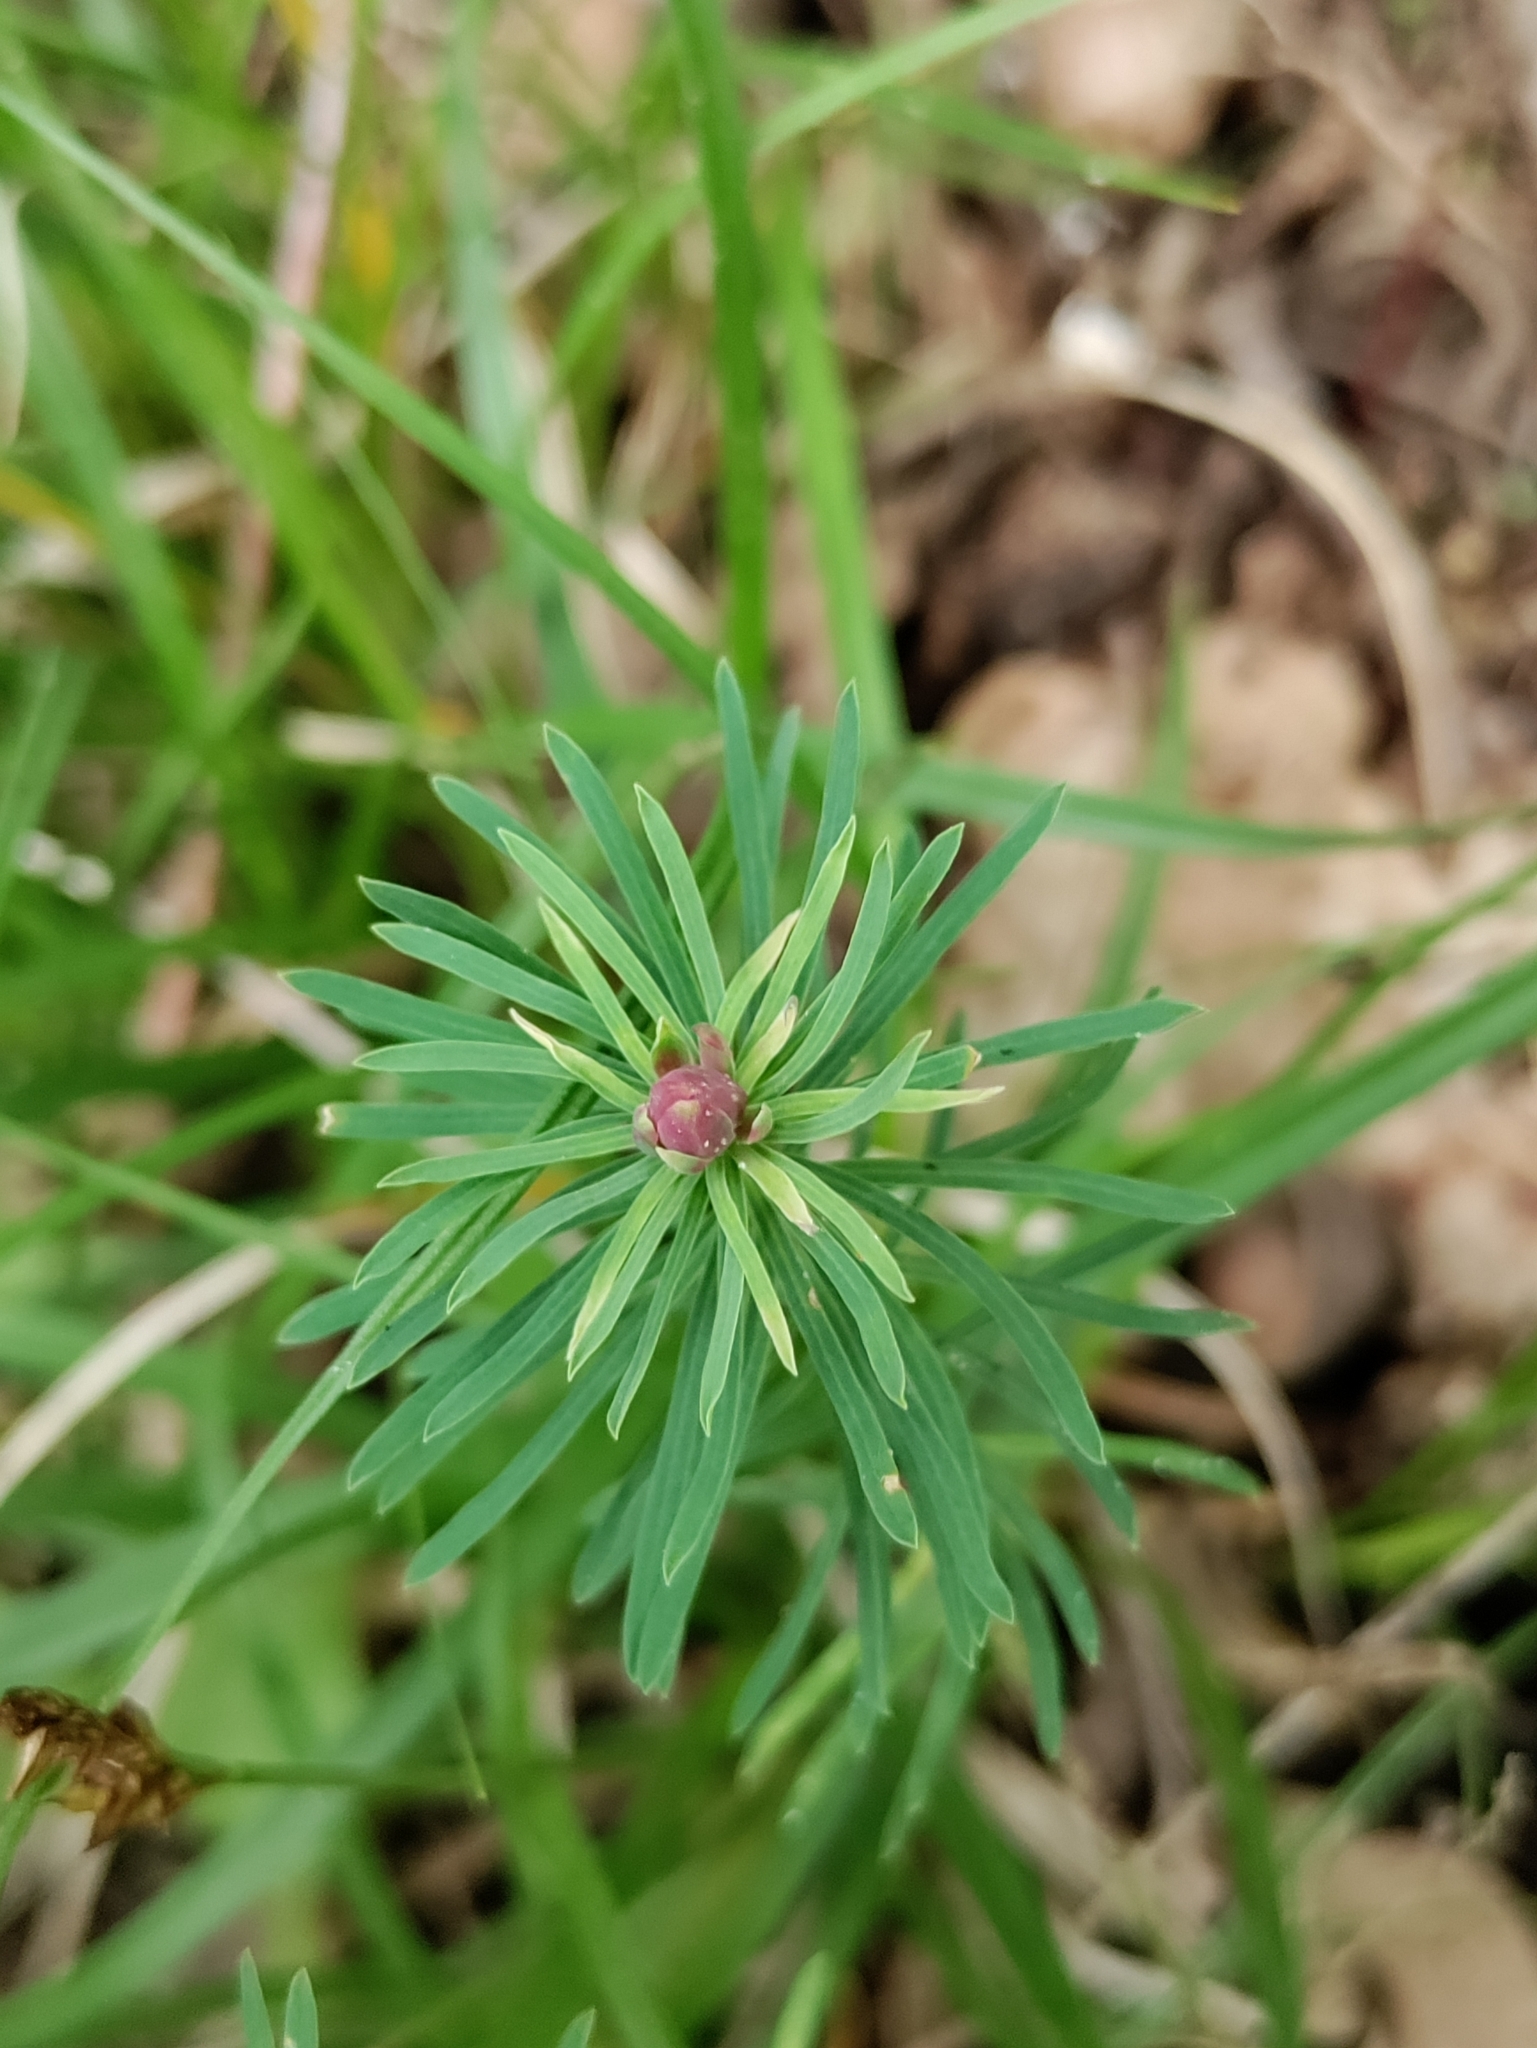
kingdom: Animalia
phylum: Arthropoda
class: Insecta
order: Diptera
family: Cecidomyiidae
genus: Spurgia
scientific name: Spurgia euphorbiae
